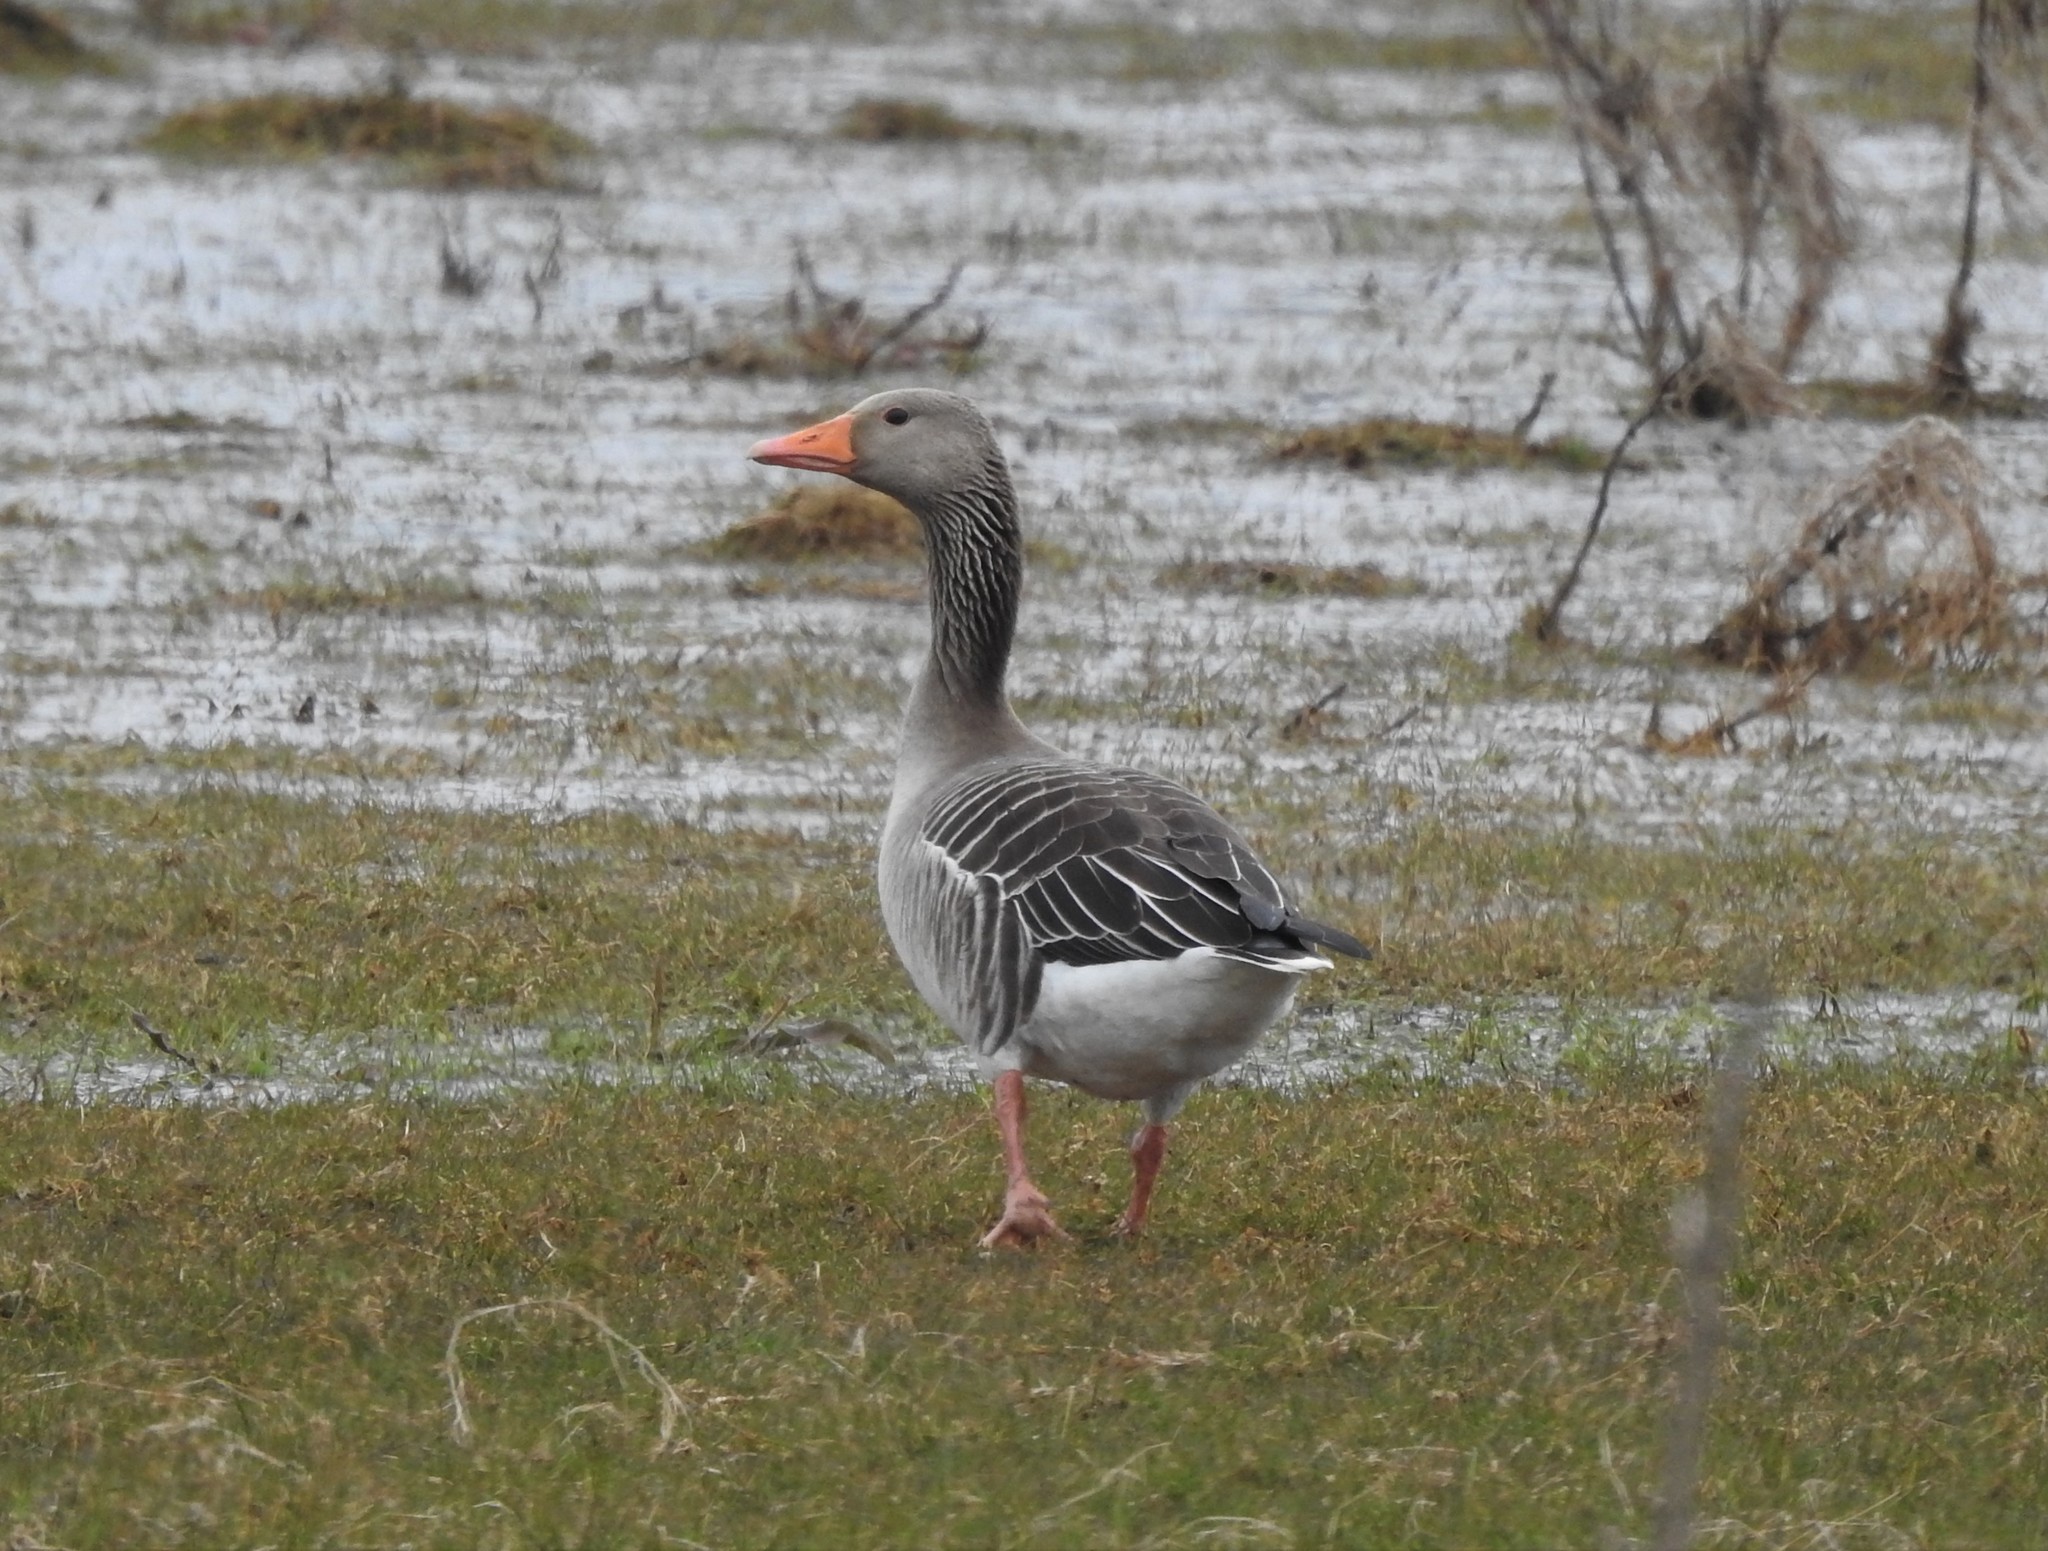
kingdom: Animalia
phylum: Chordata
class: Aves
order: Anseriformes
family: Anatidae
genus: Anser
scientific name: Anser anser
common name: Greylag goose
